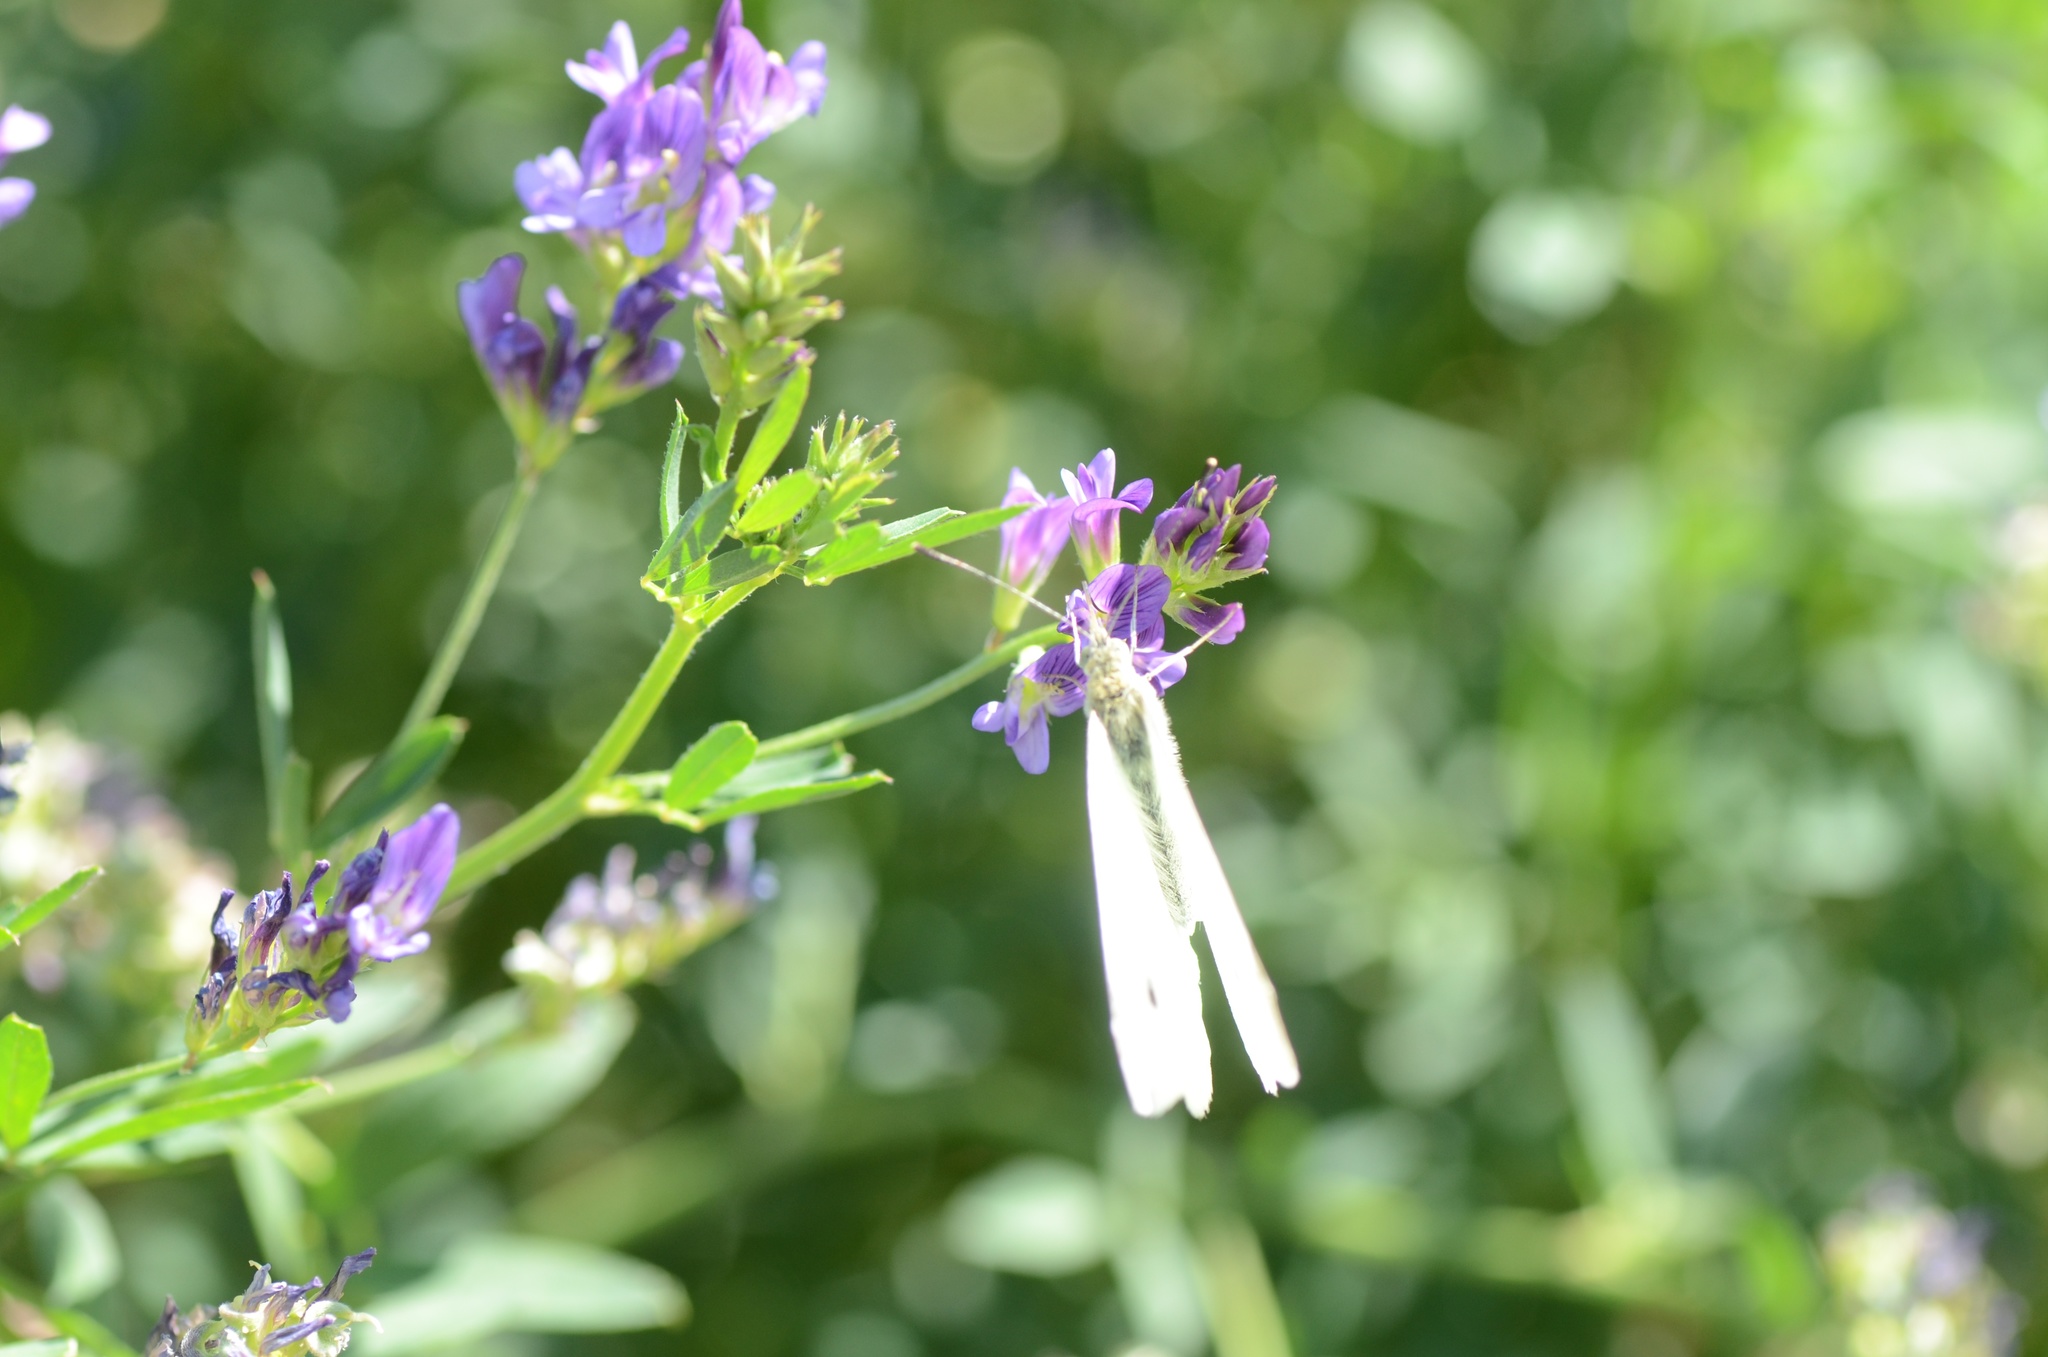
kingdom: Plantae
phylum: Tracheophyta
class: Magnoliopsida
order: Fabales
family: Fabaceae
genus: Medicago
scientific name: Medicago sativa
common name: Alfalfa
